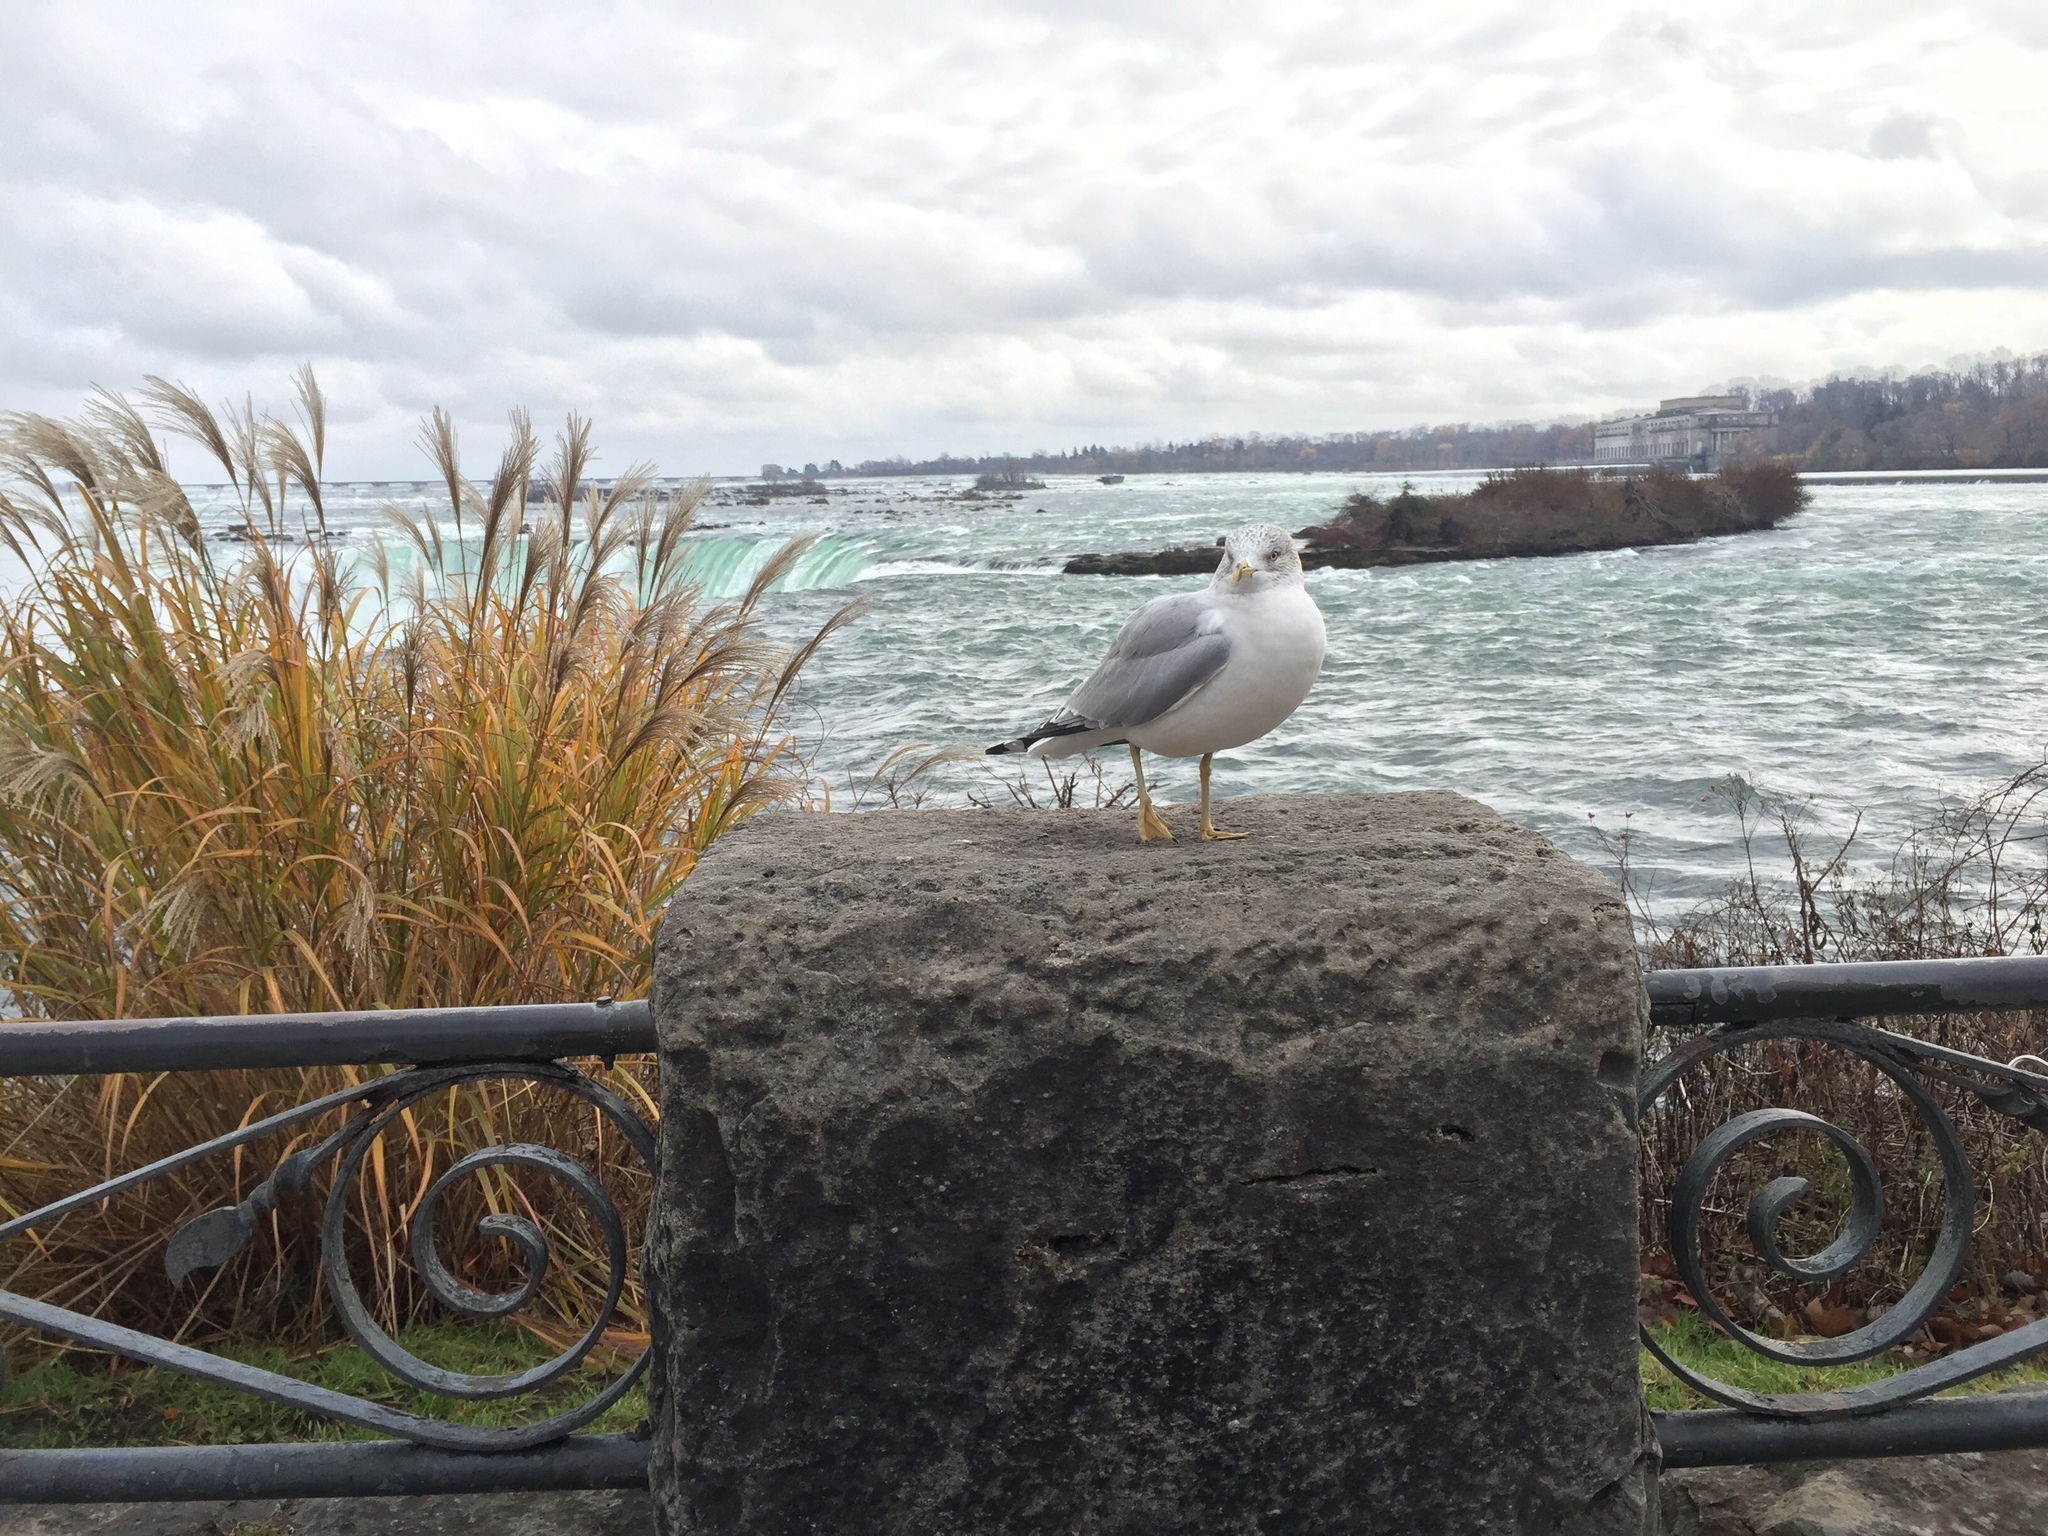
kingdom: Animalia
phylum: Chordata
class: Aves
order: Charadriiformes
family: Laridae
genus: Larus
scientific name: Larus delawarensis
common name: Ring-billed gull
